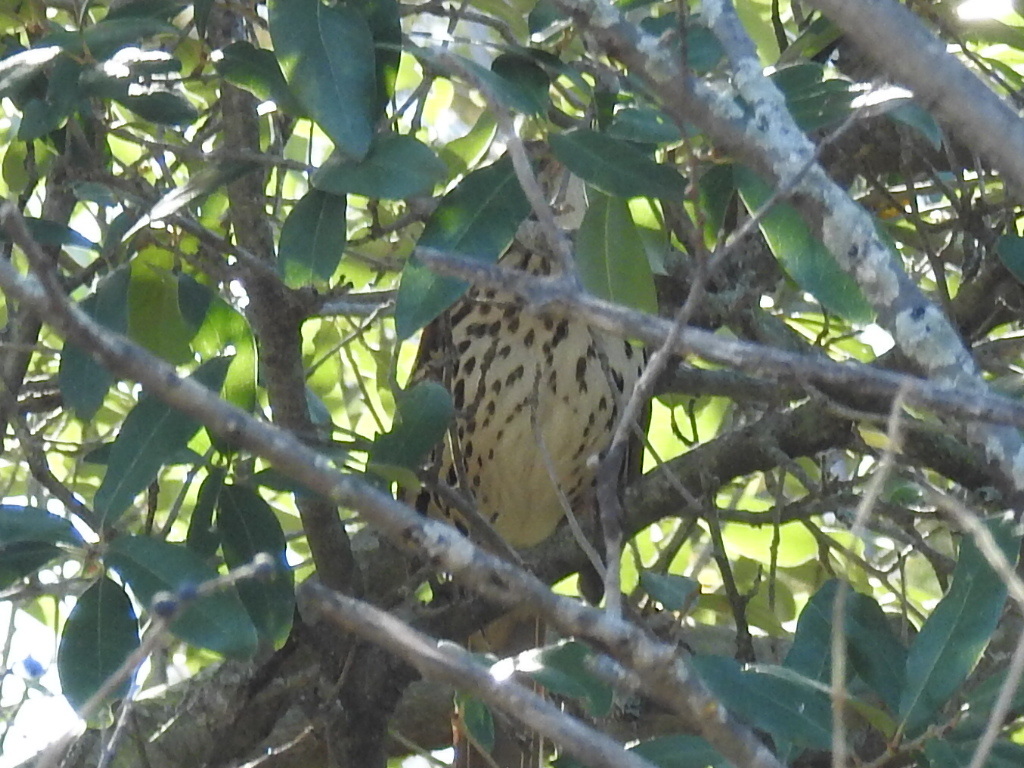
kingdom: Animalia
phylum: Chordata
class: Aves
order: Passeriformes
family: Mimidae
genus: Toxostoma
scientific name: Toxostoma rufum
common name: Brown thrasher
